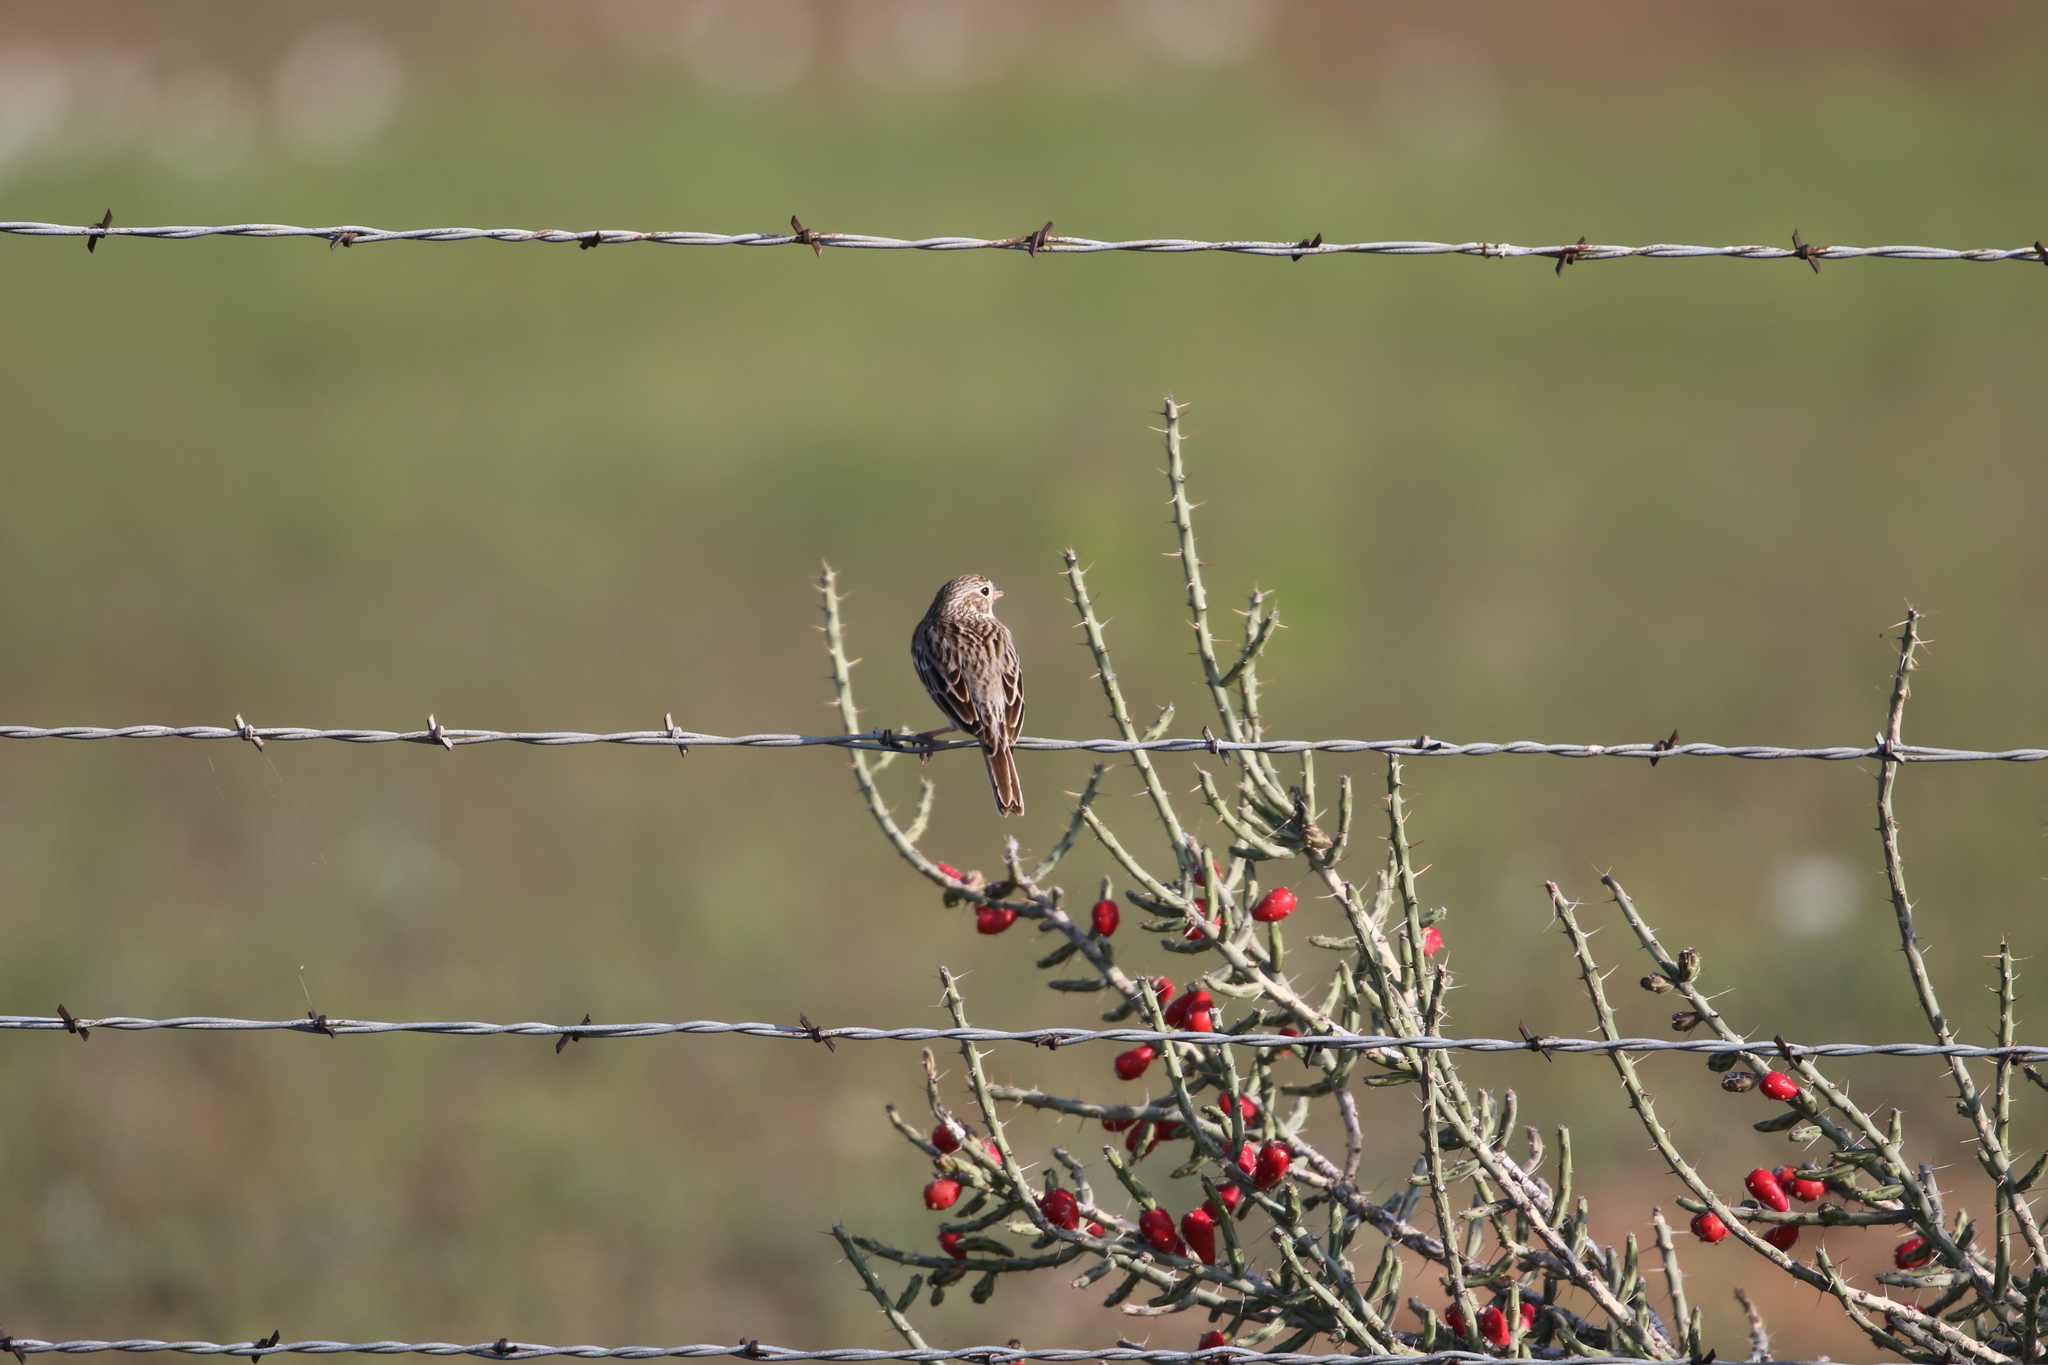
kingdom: Animalia
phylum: Chordata
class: Aves
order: Passeriformes
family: Passerellidae
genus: Pooecetes
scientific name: Pooecetes gramineus
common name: Vesper sparrow
